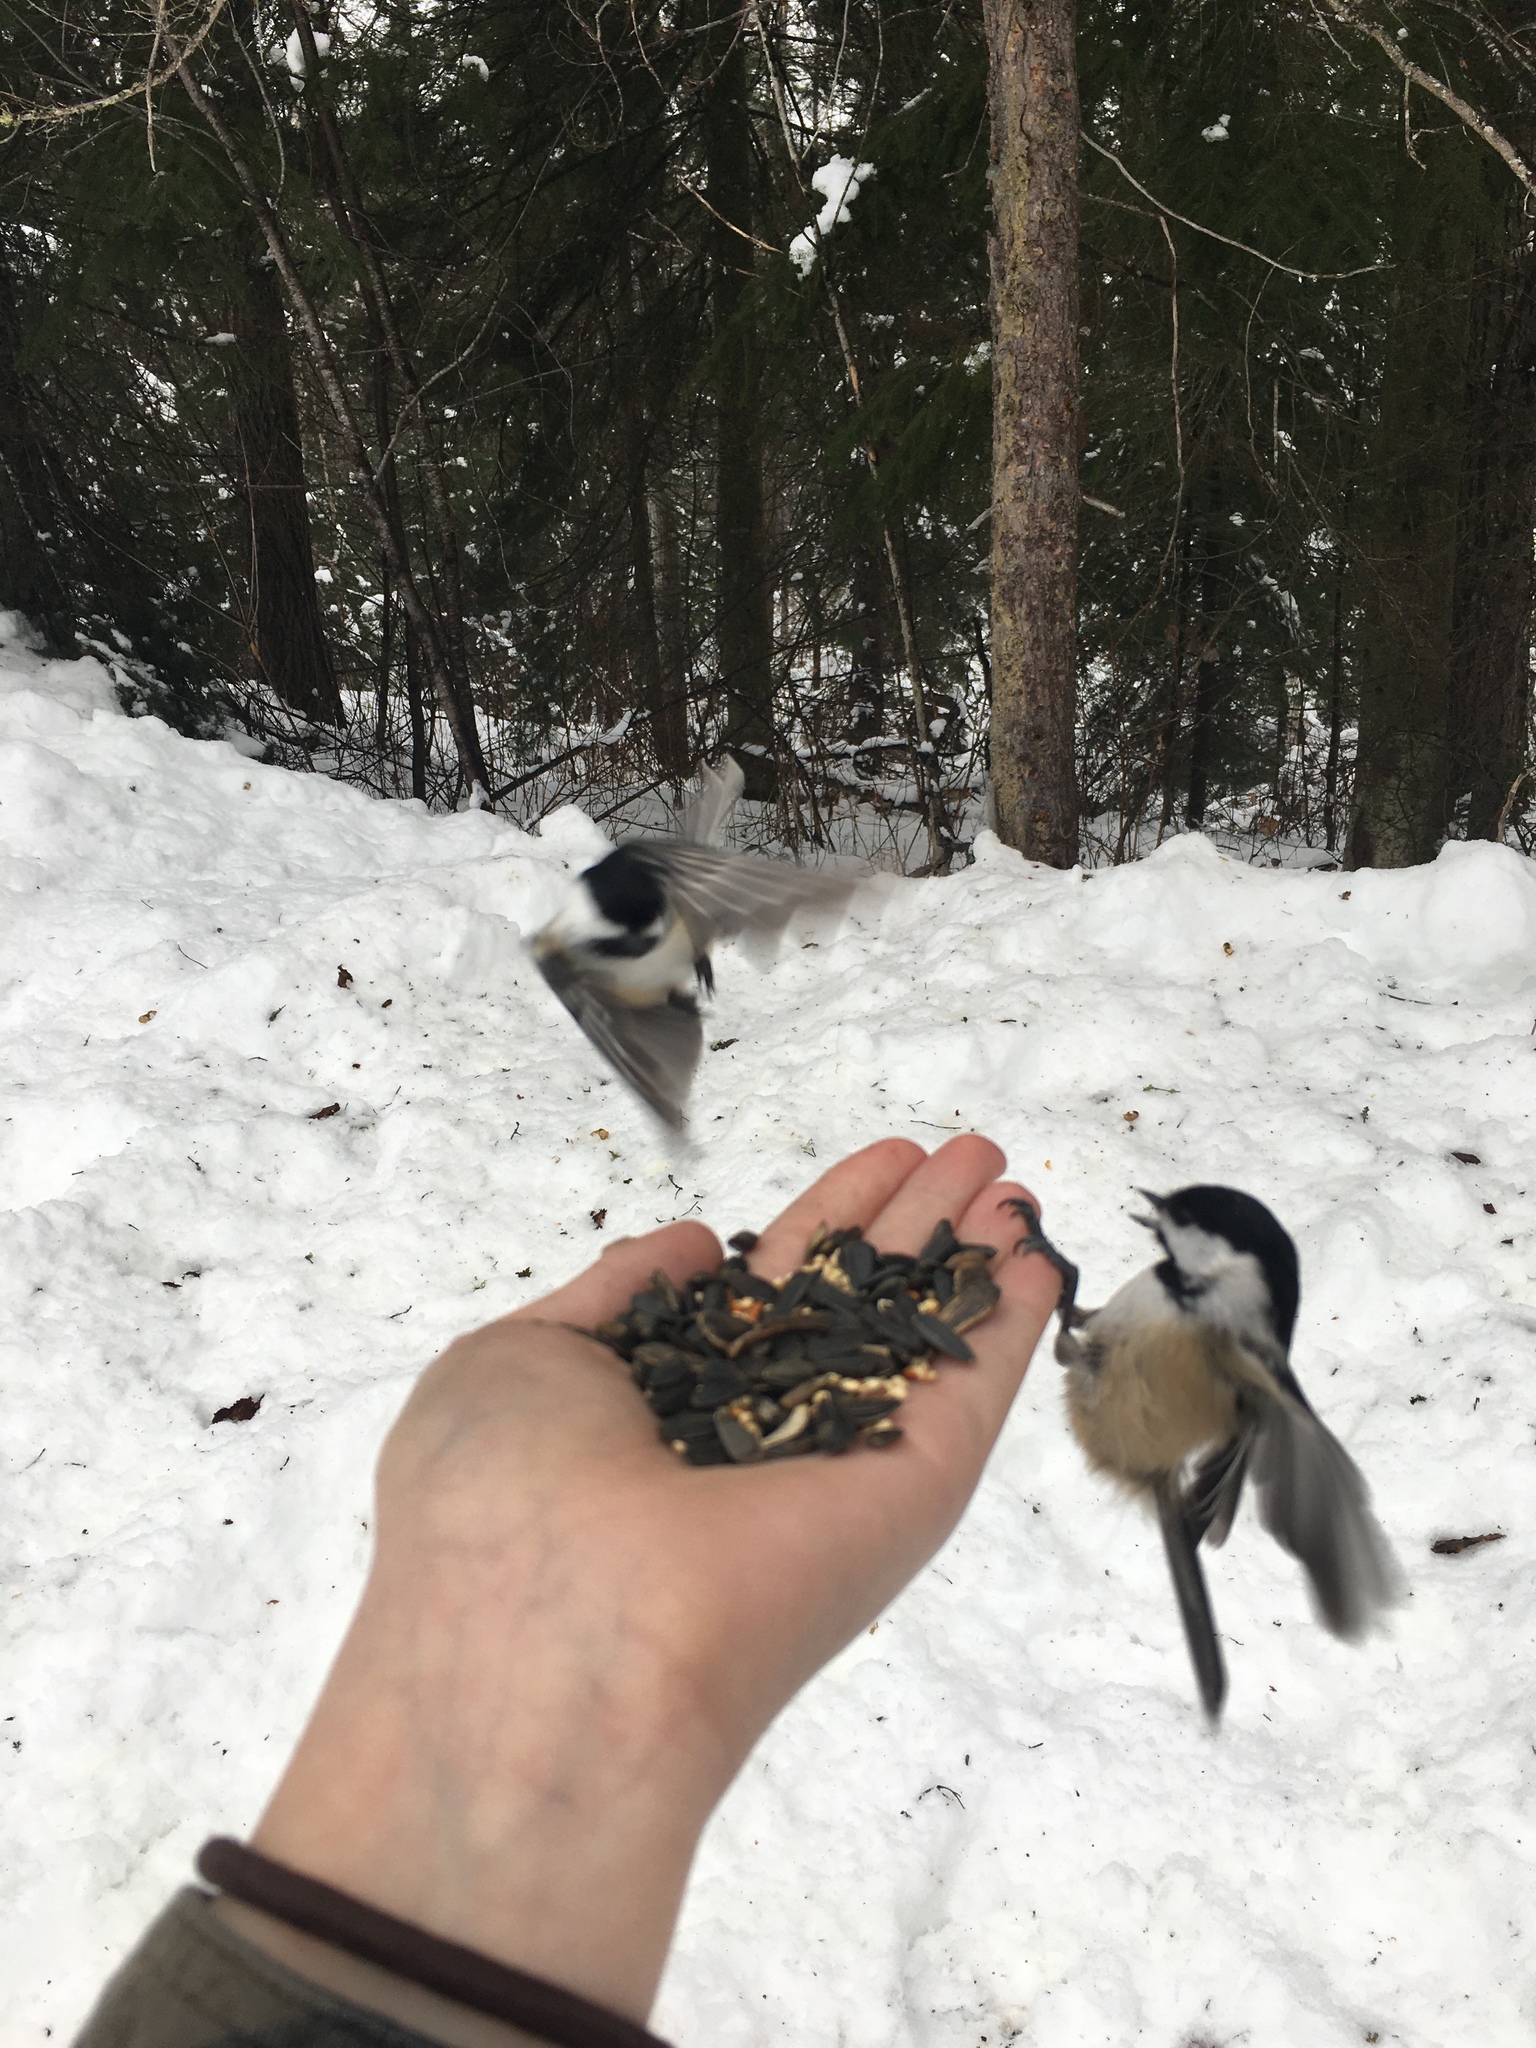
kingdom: Animalia
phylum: Chordata
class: Aves
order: Passeriformes
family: Paridae
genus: Poecile
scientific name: Poecile atricapillus
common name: Black-capped chickadee
